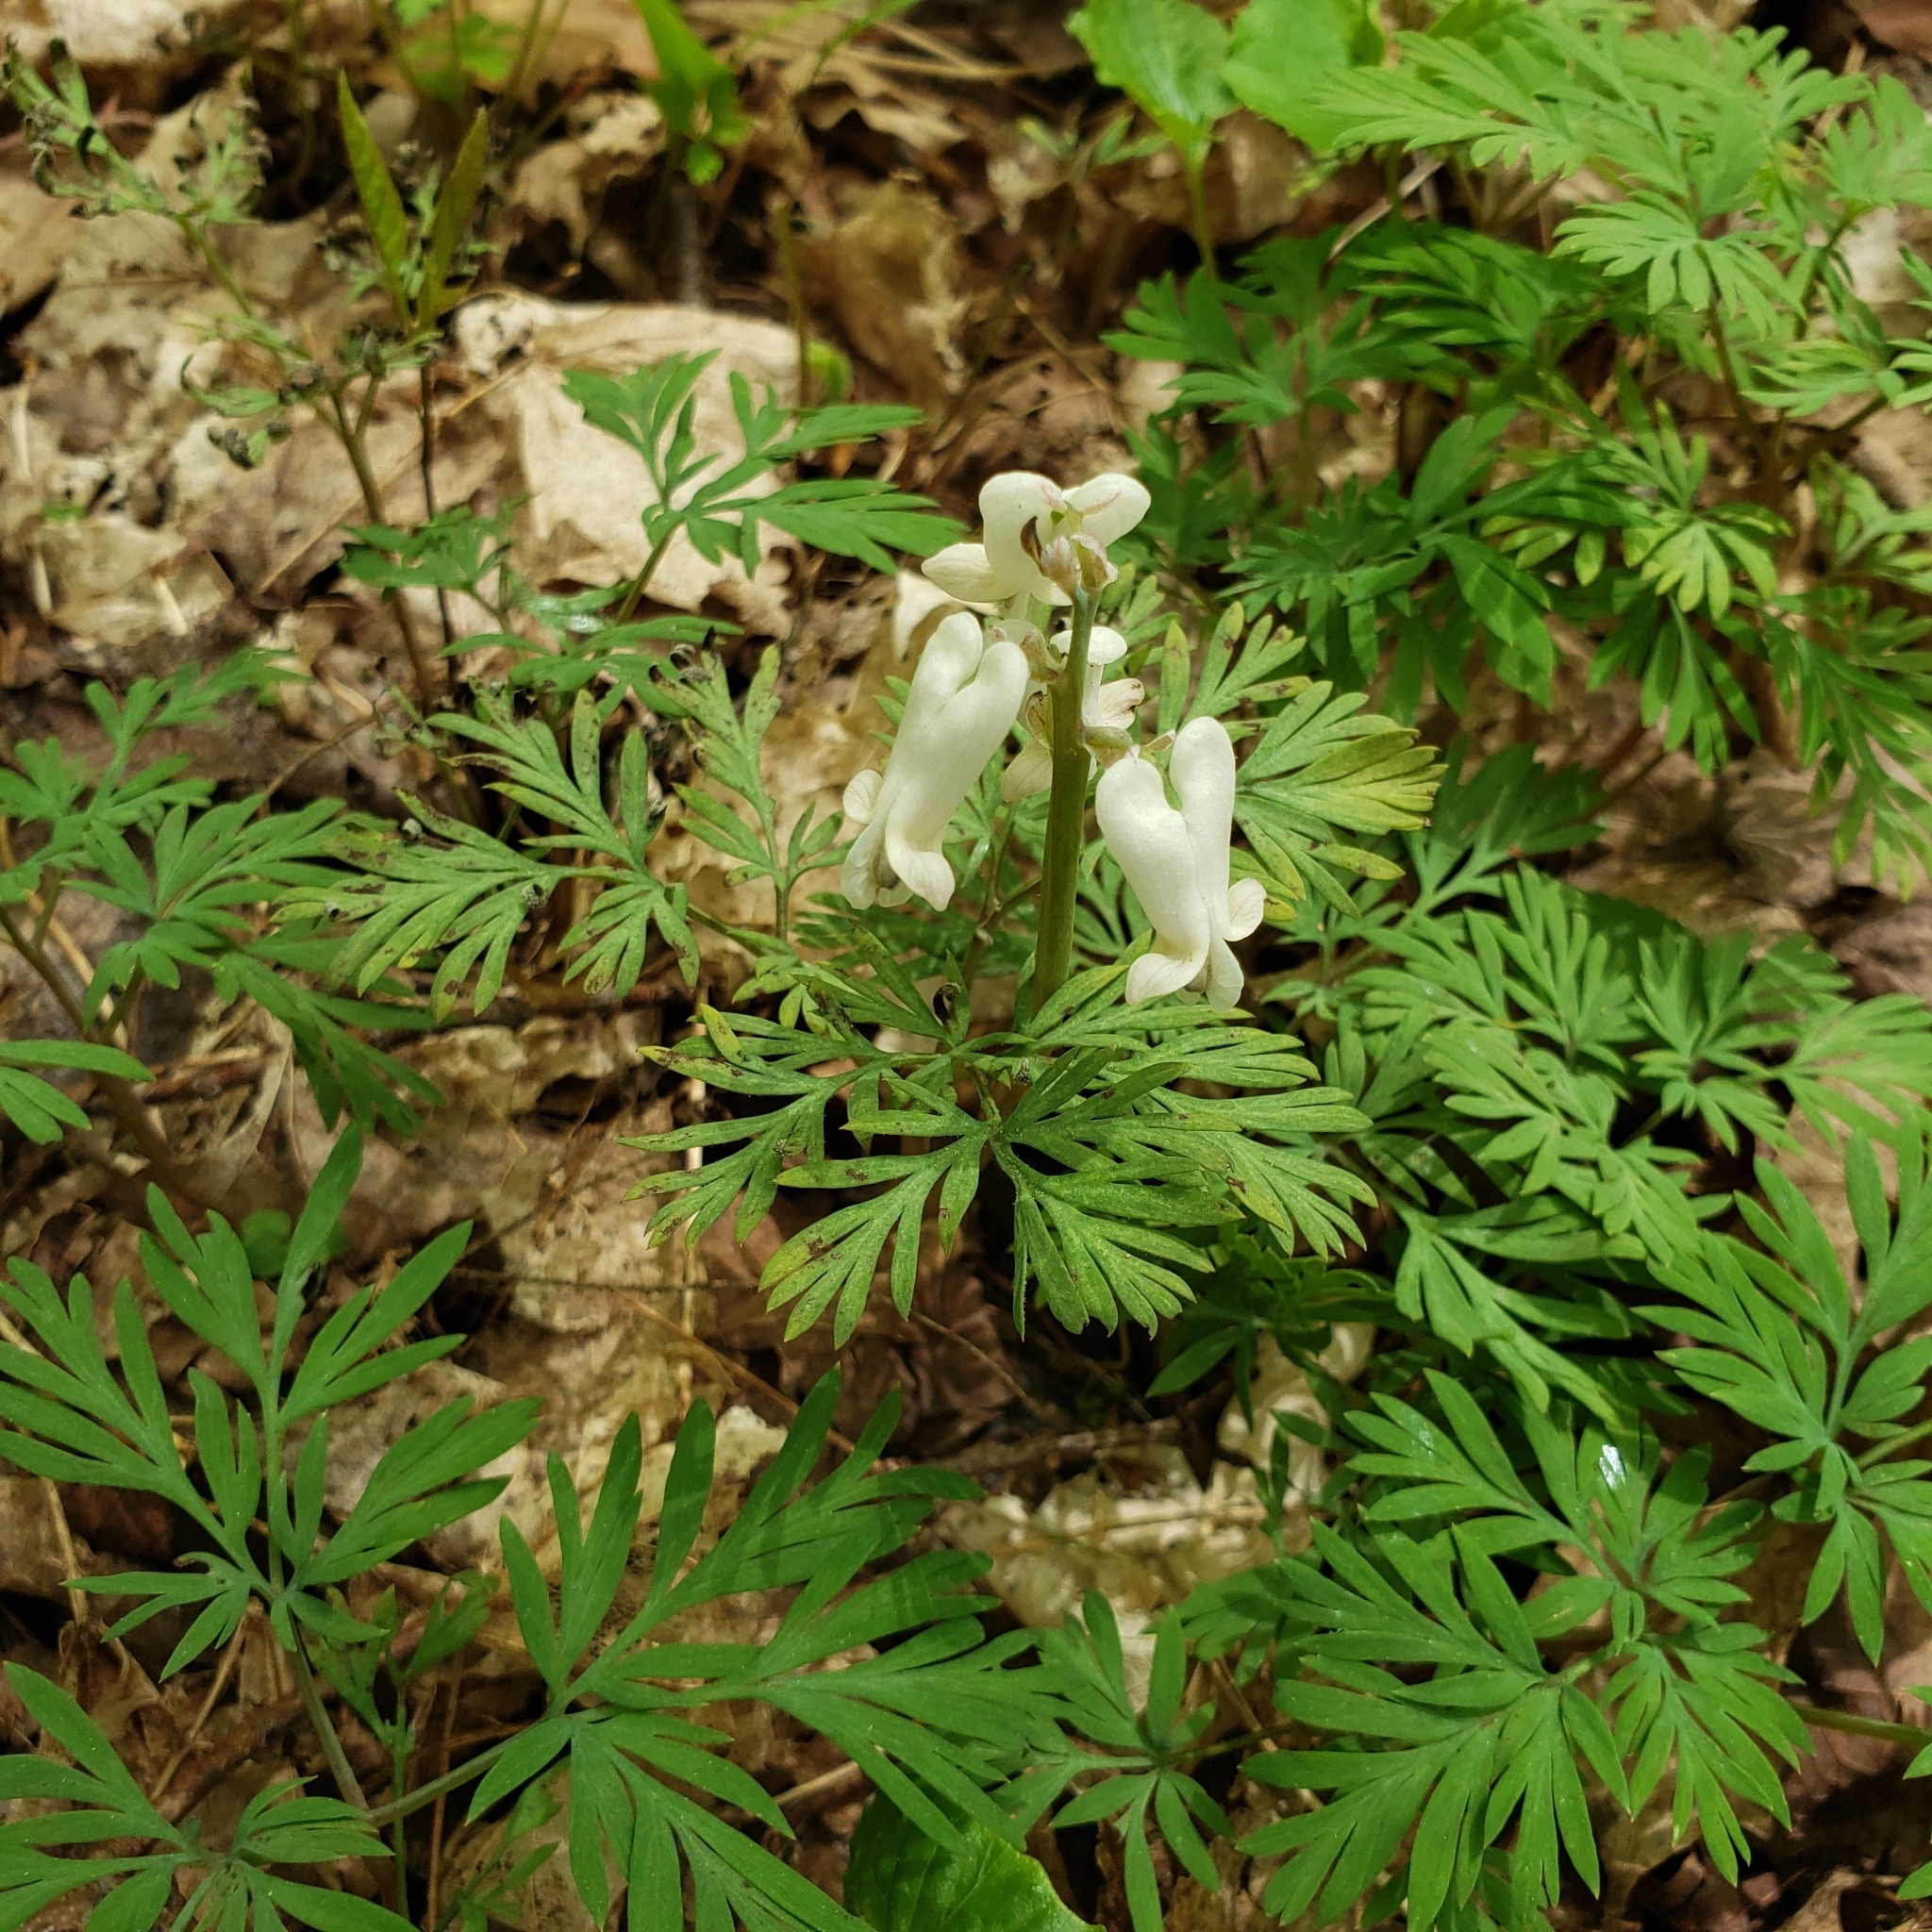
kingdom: Plantae
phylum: Tracheophyta
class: Magnoliopsida
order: Ranunculales
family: Papaveraceae
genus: Dicentra
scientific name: Dicentra canadensis
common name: Squirrel-corn
